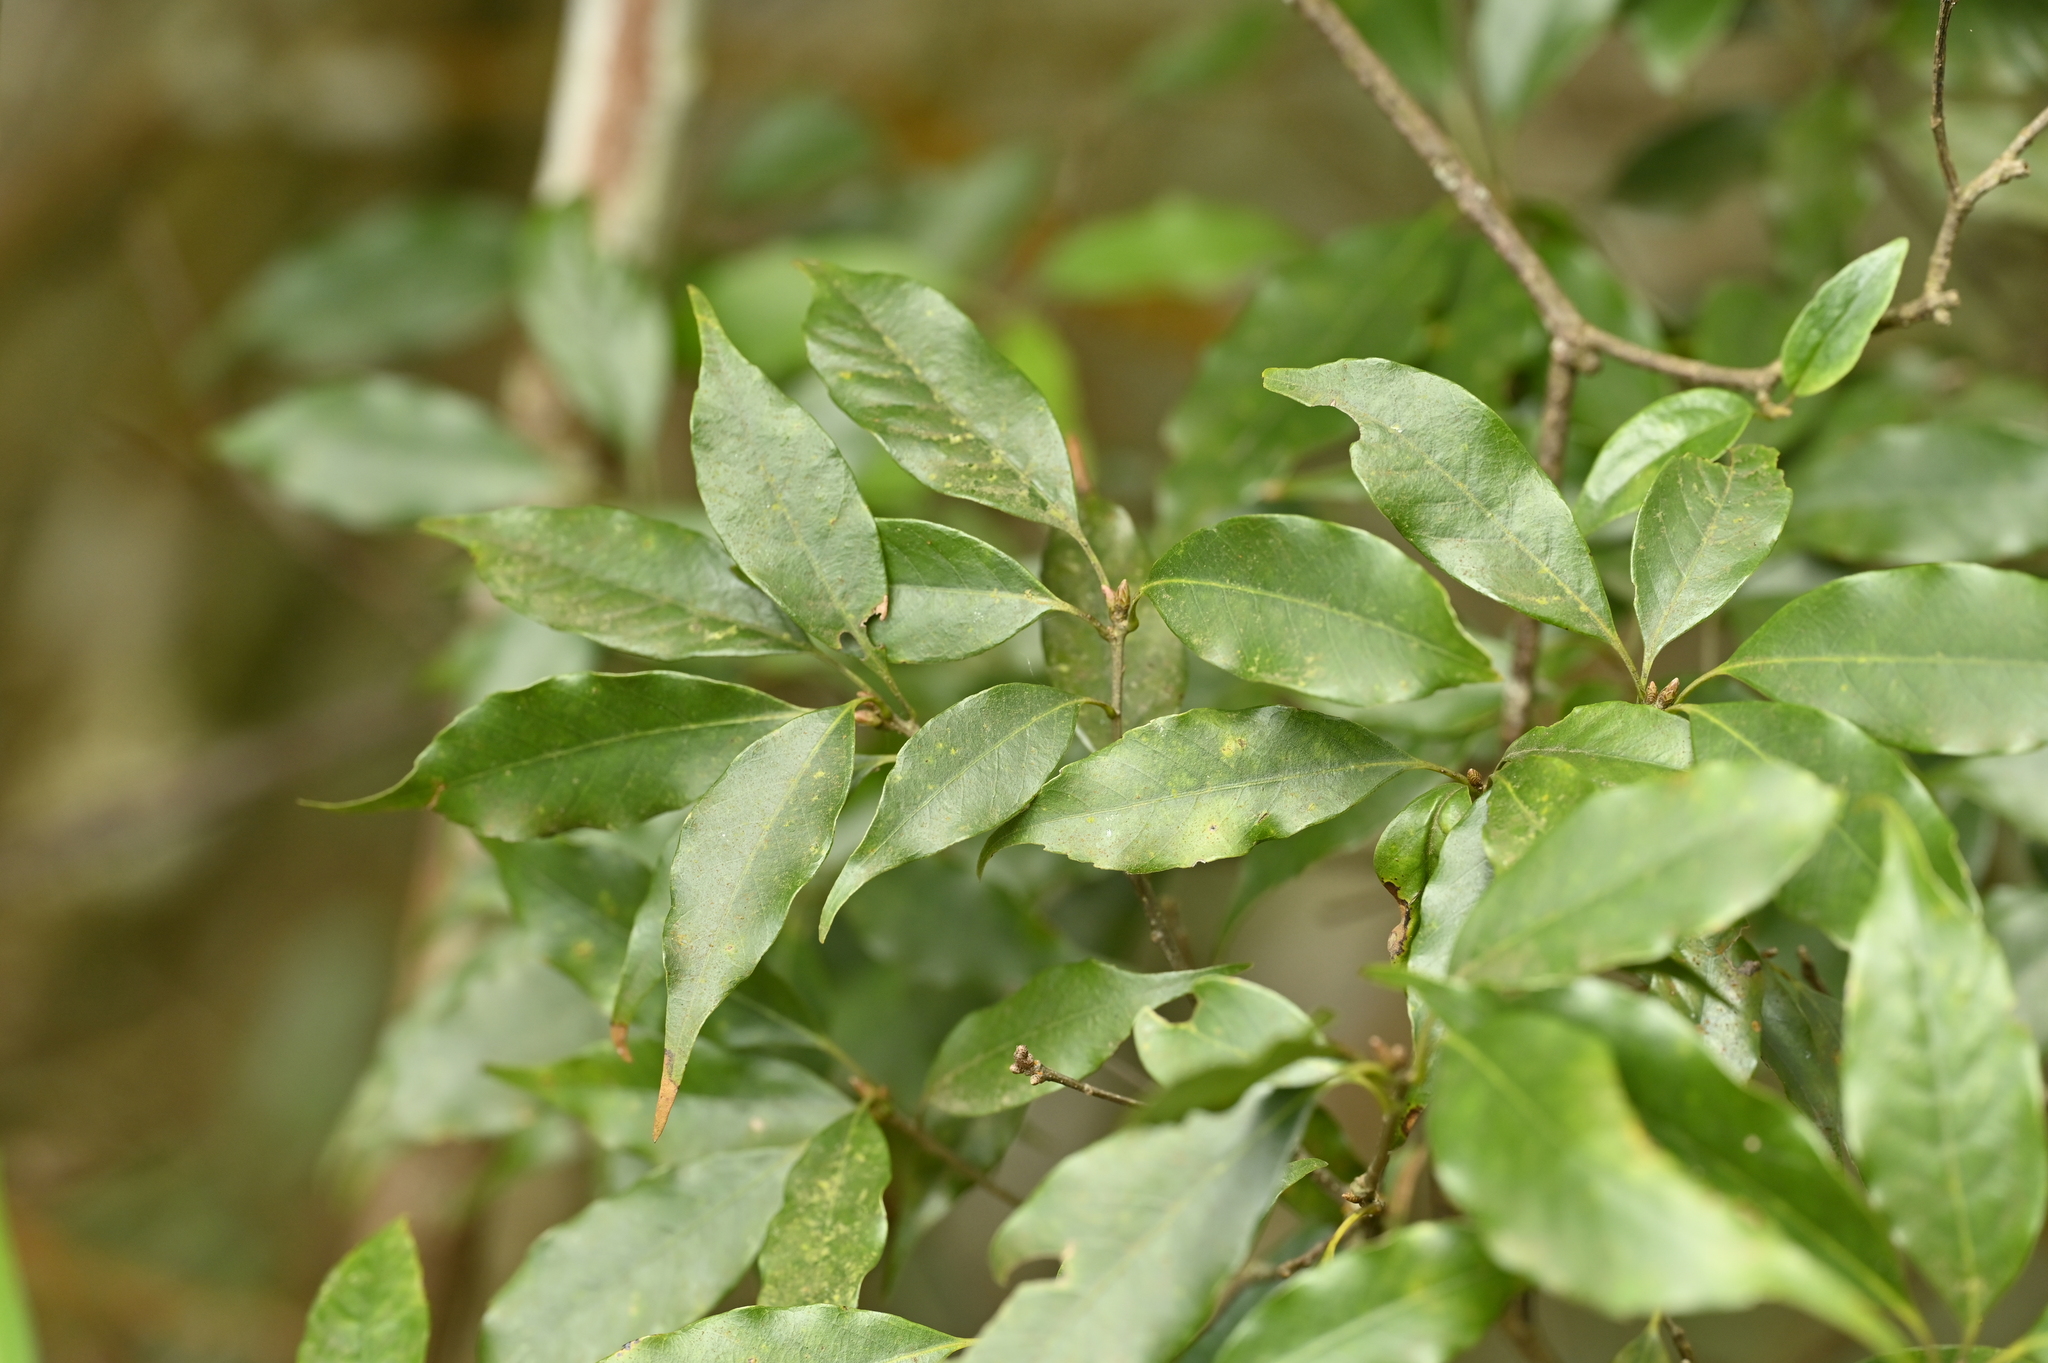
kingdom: Plantae
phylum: Tracheophyta
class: Magnoliopsida
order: Fagales
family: Fagaceae
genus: Quercus
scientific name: Quercus longinux
